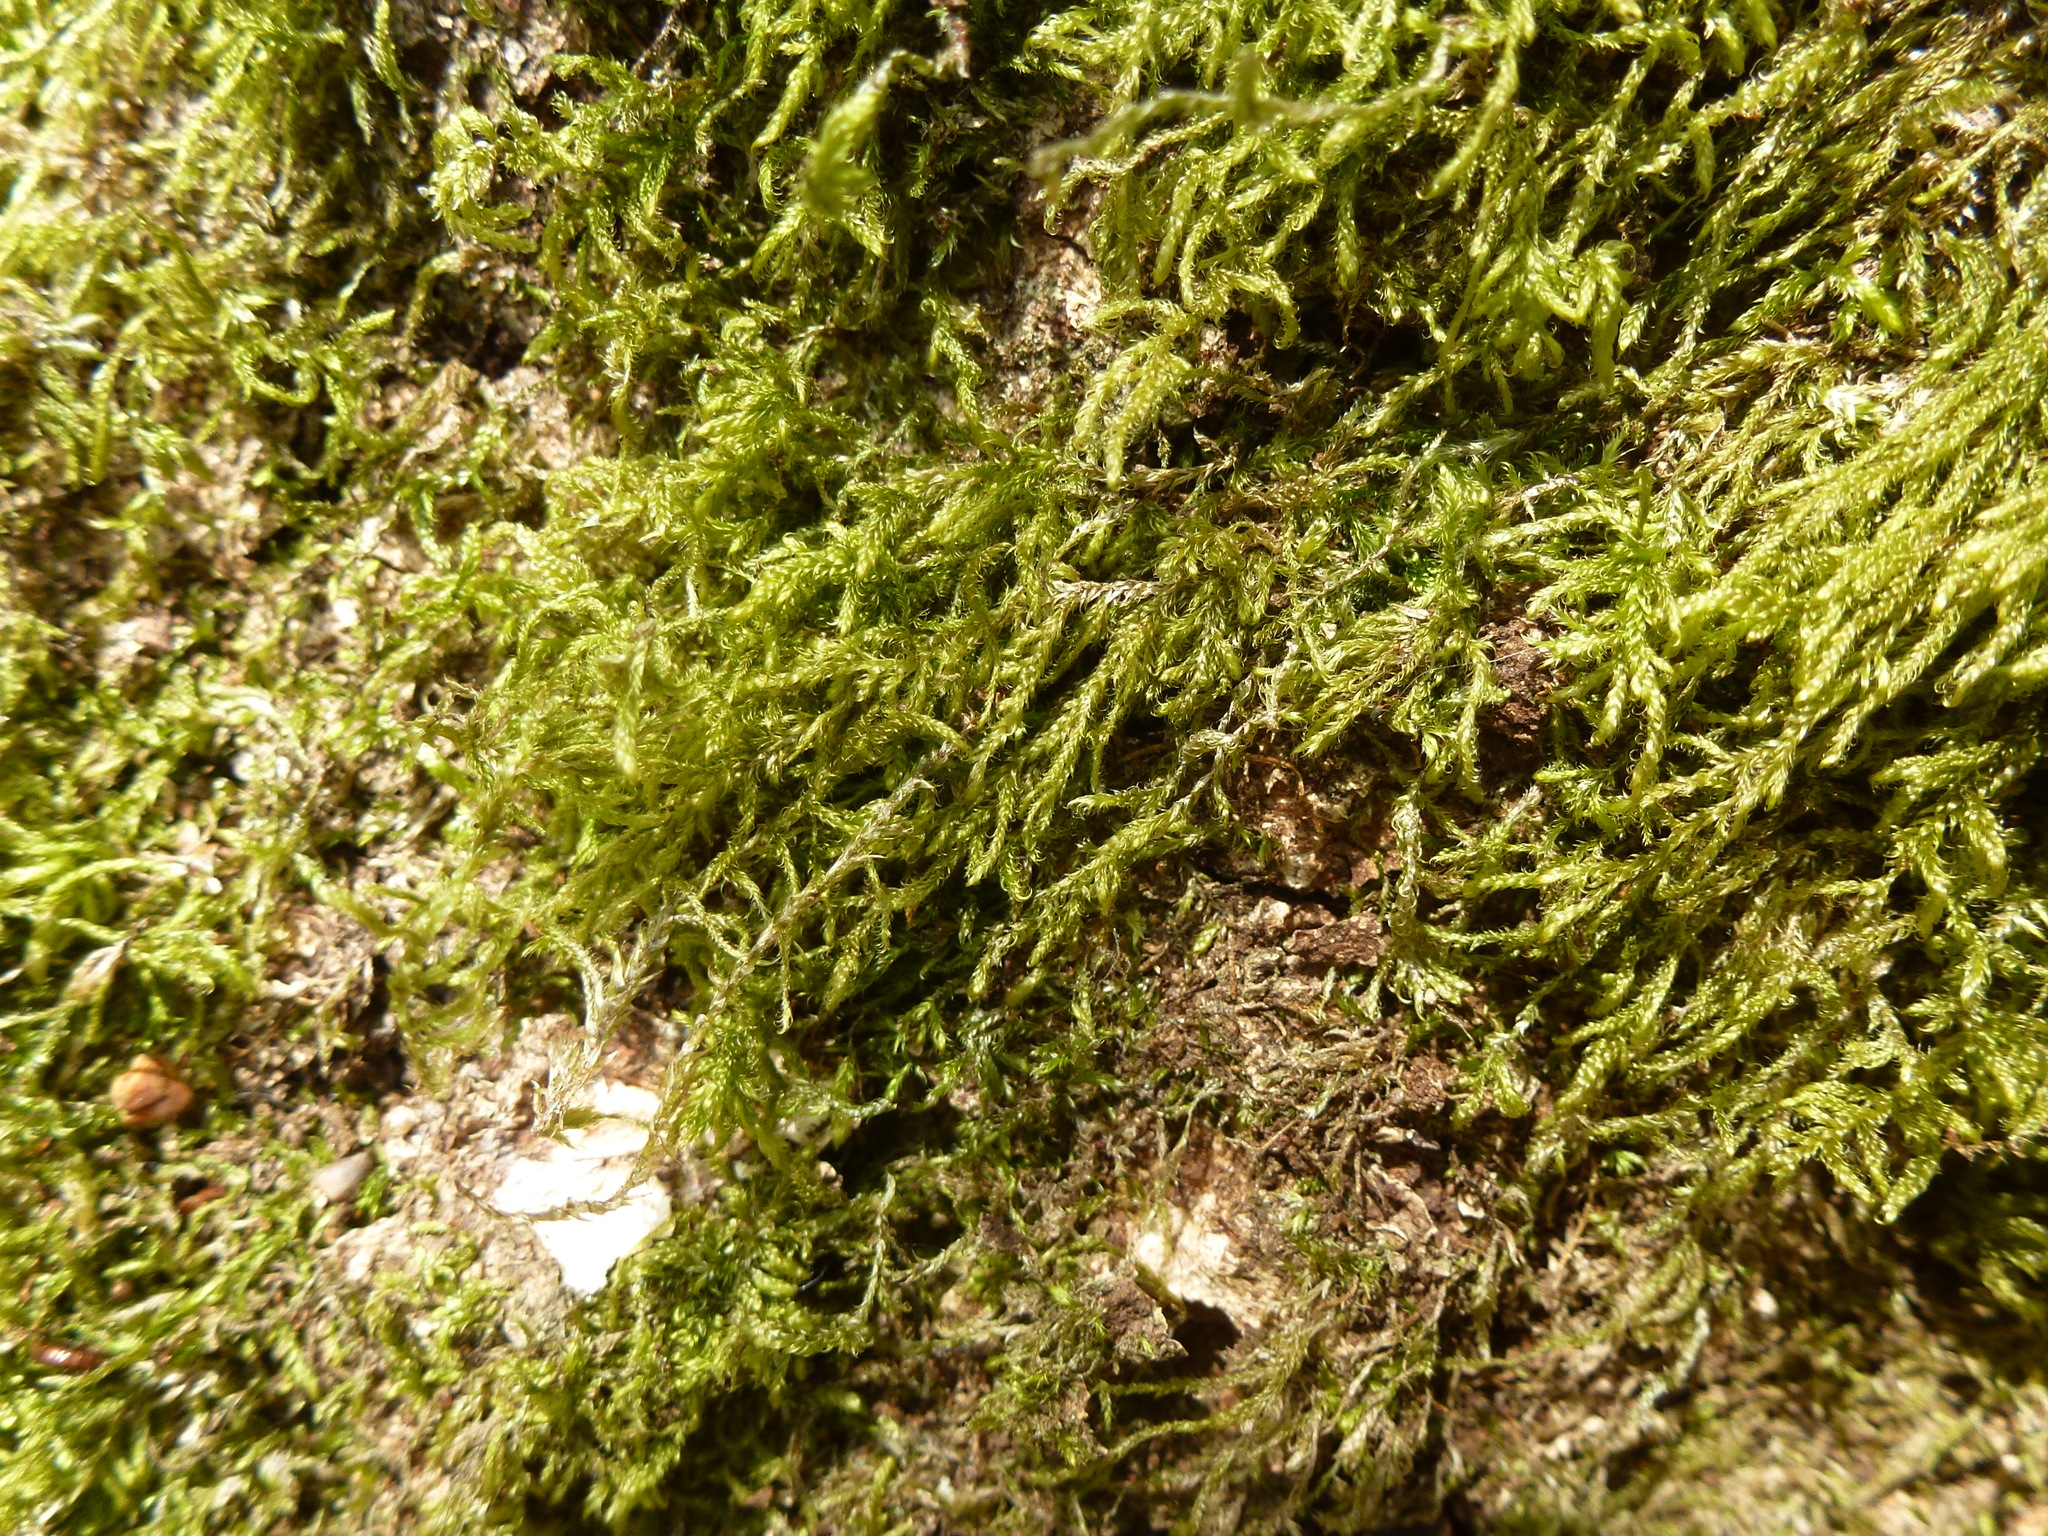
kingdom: Plantae
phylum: Bryophyta
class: Bryopsida
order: Hypnales
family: Hypnaceae
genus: Hypnum
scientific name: Hypnum cupressiforme
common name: Cypress-leaved plait-moss
